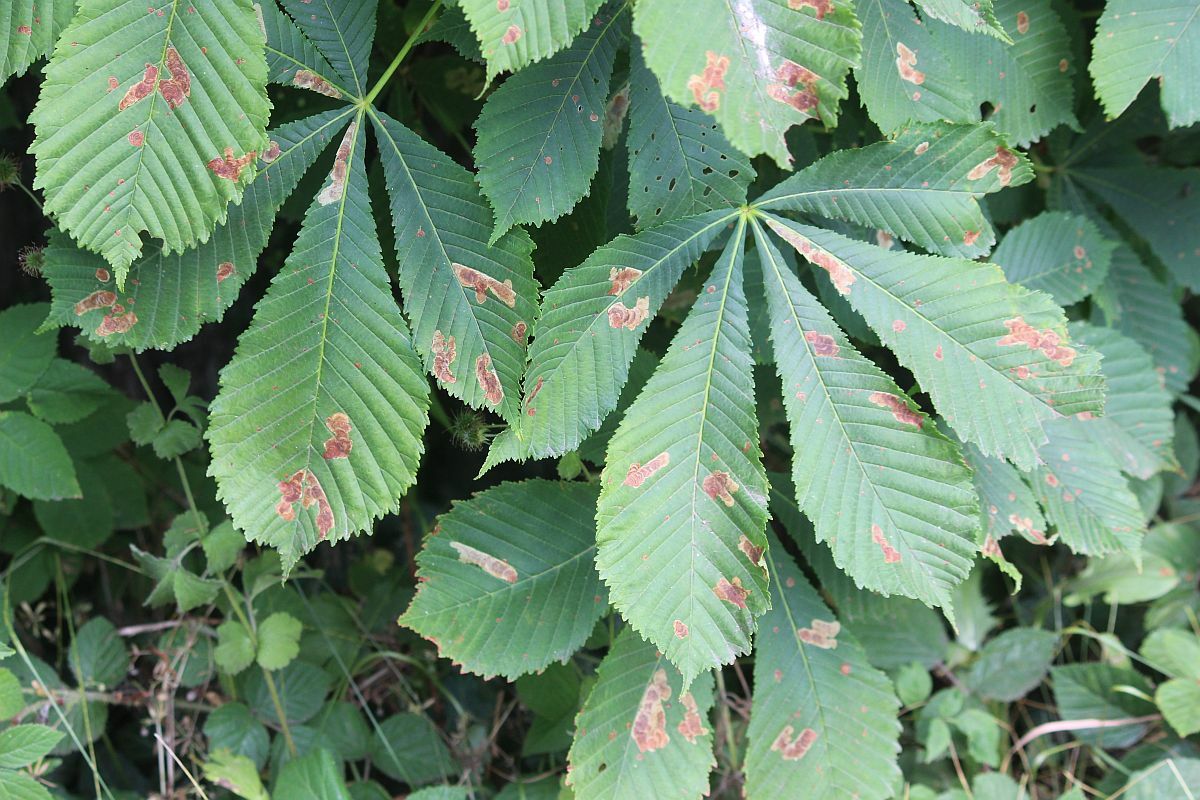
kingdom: Animalia
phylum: Arthropoda
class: Insecta
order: Lepidoptera
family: Gracillariidae
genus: Cameraria
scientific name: Cameraria ohridella
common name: Horse-chestnut leaf-miner
